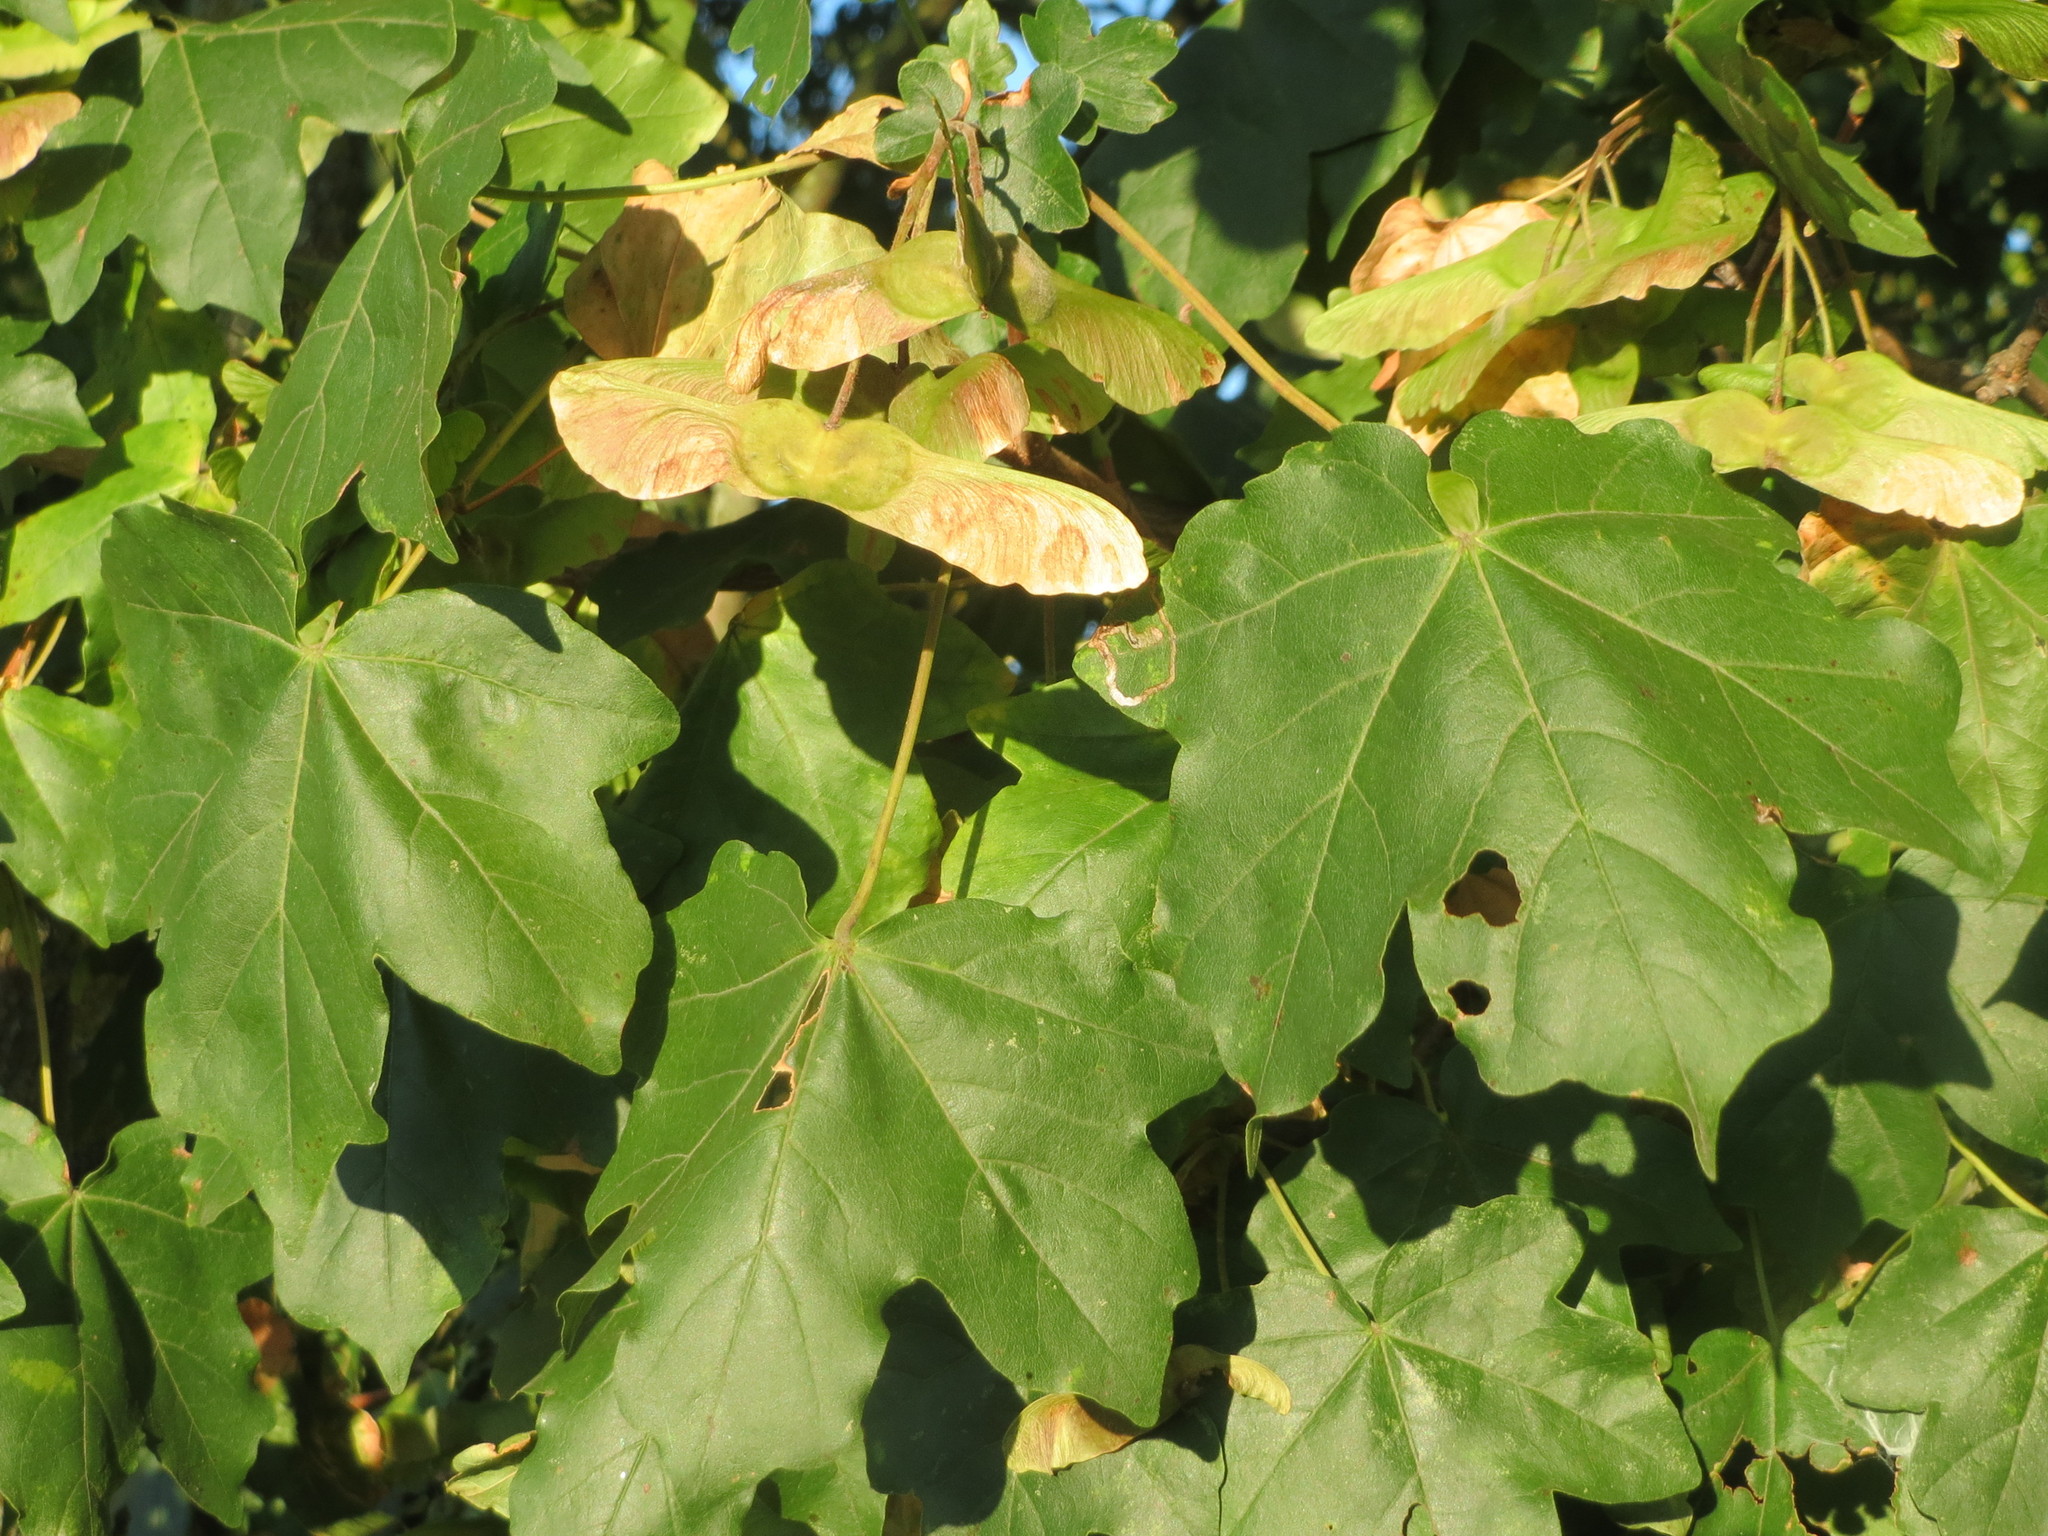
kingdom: Plantae
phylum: Tracheophyta
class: Magnoliopsida
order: Sapindales
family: Sapindaceae
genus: Acer
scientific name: Acer campestre
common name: Field maple
